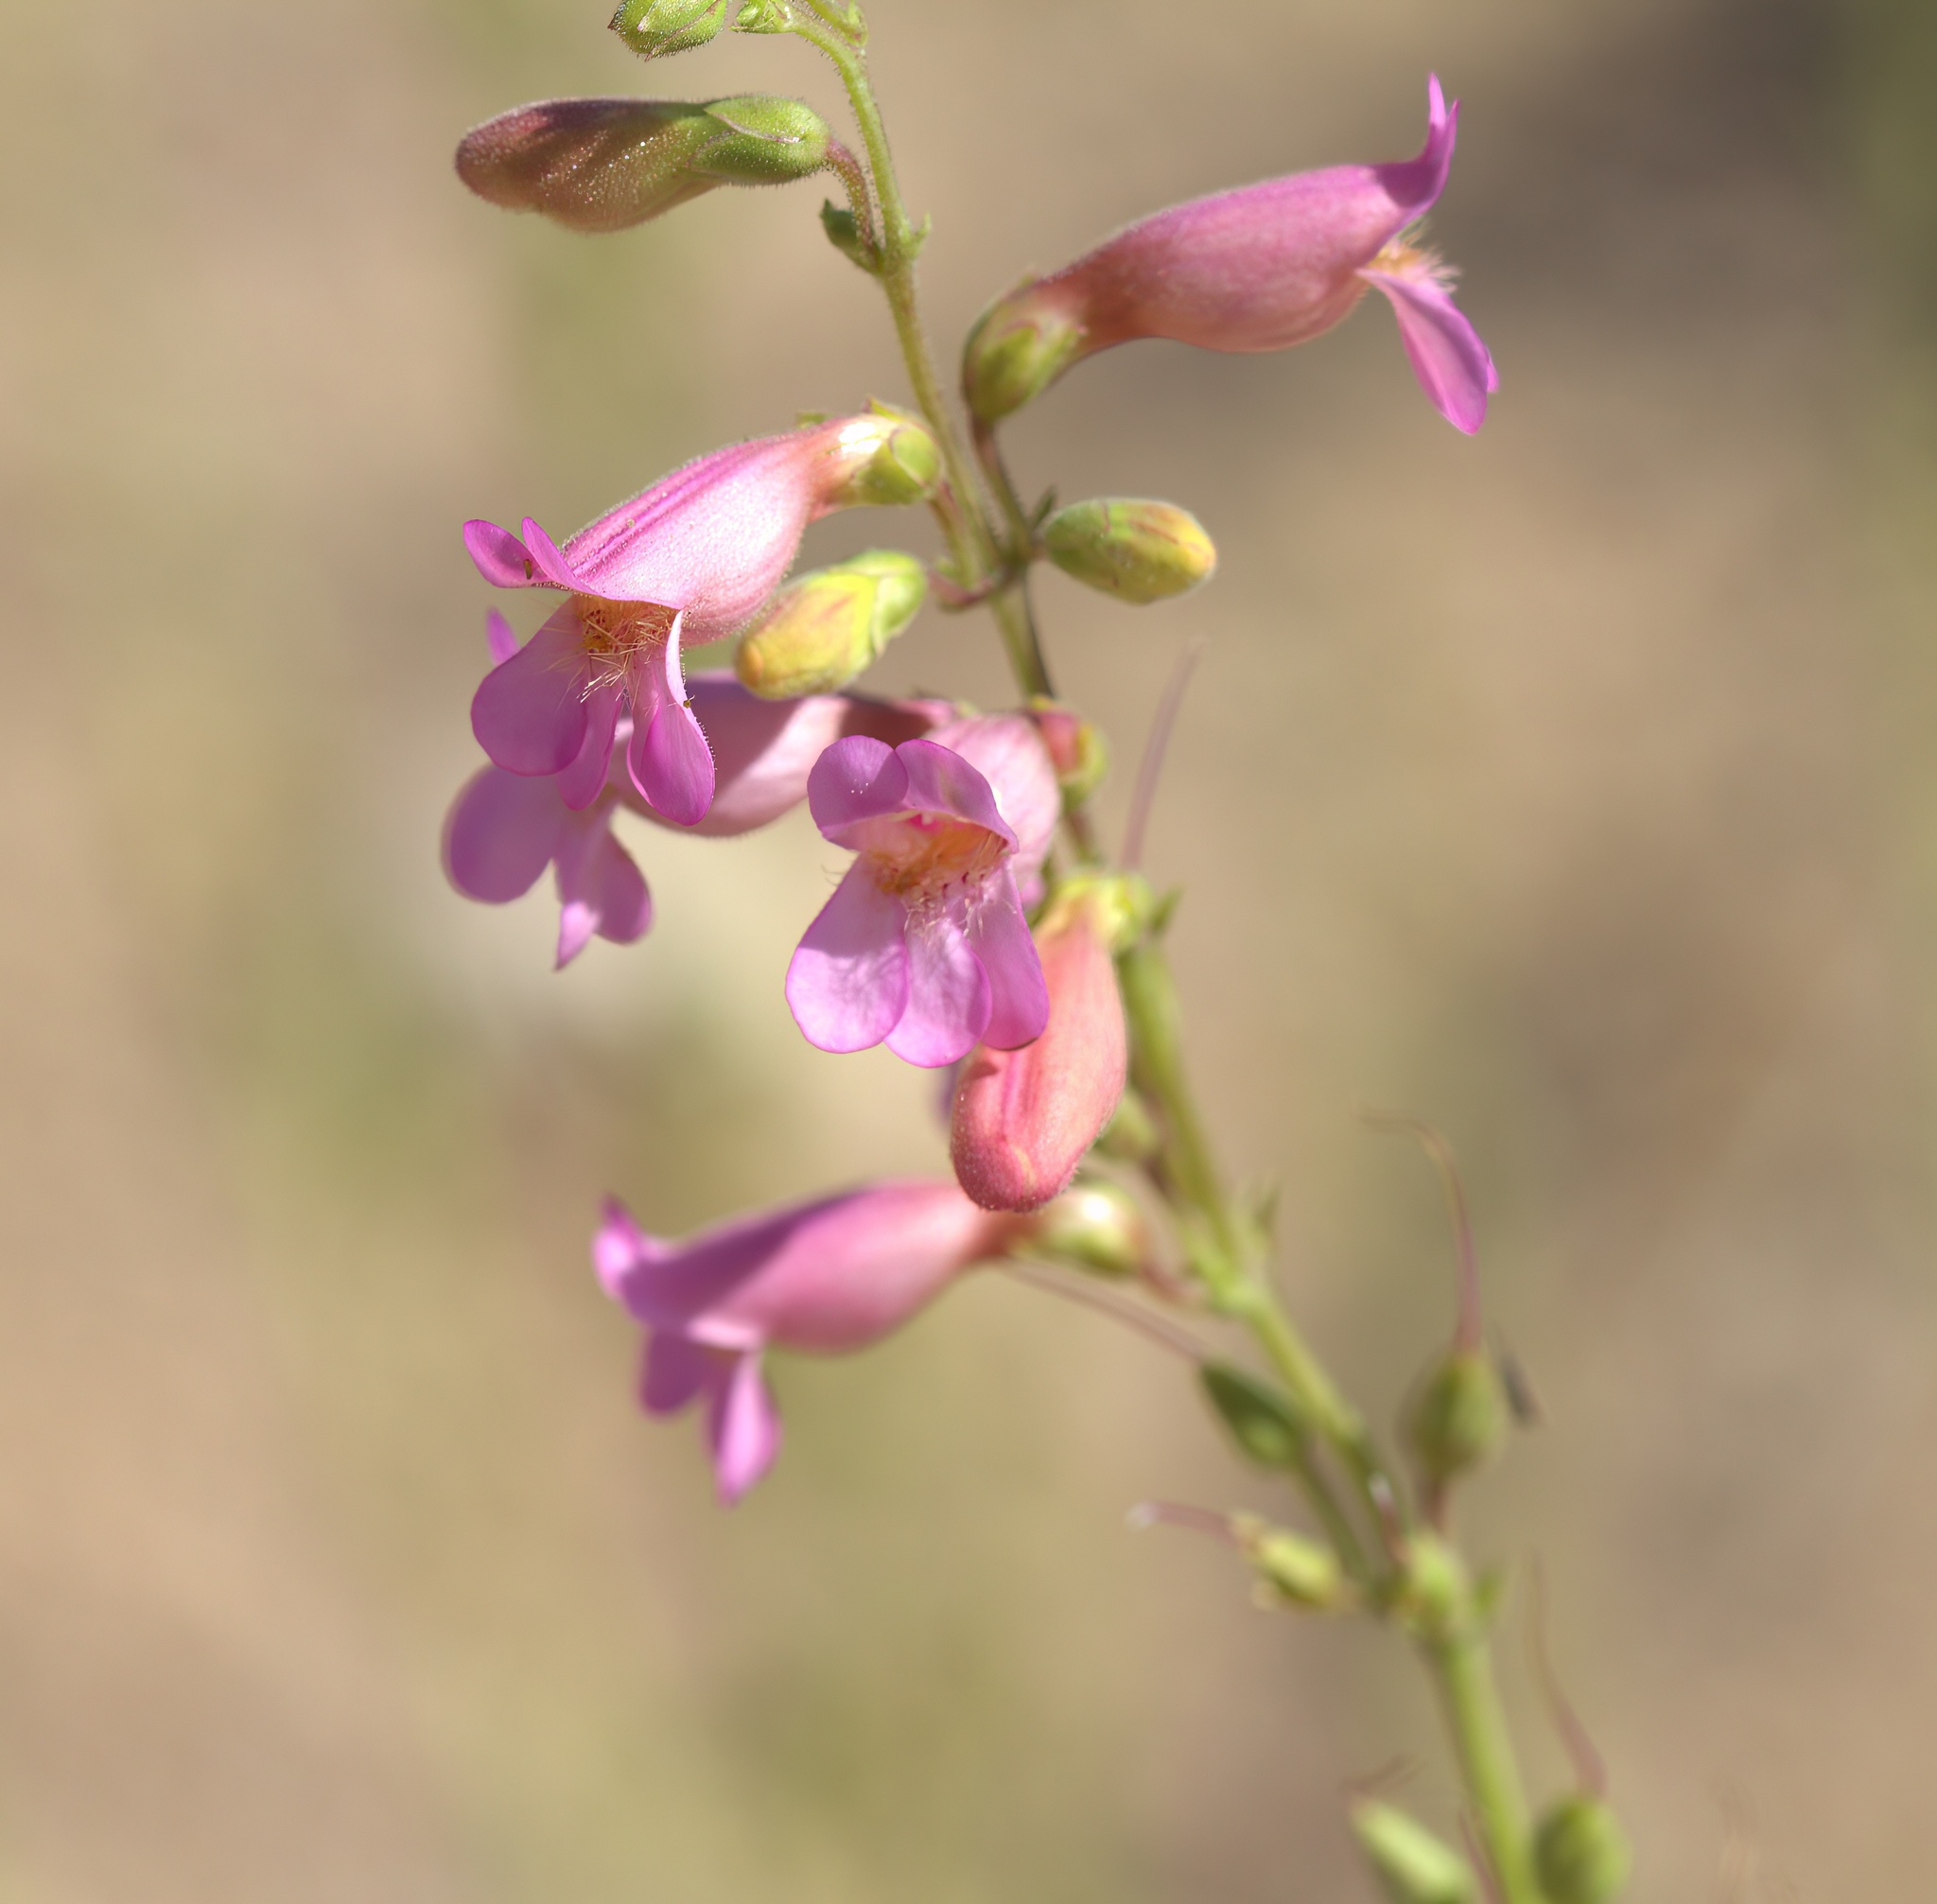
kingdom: Plantae
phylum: Tracheophyta
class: Magnoliopsida
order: Lamiales
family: Plantaginaceae
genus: Penstemon
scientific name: Penstemon bicolor
